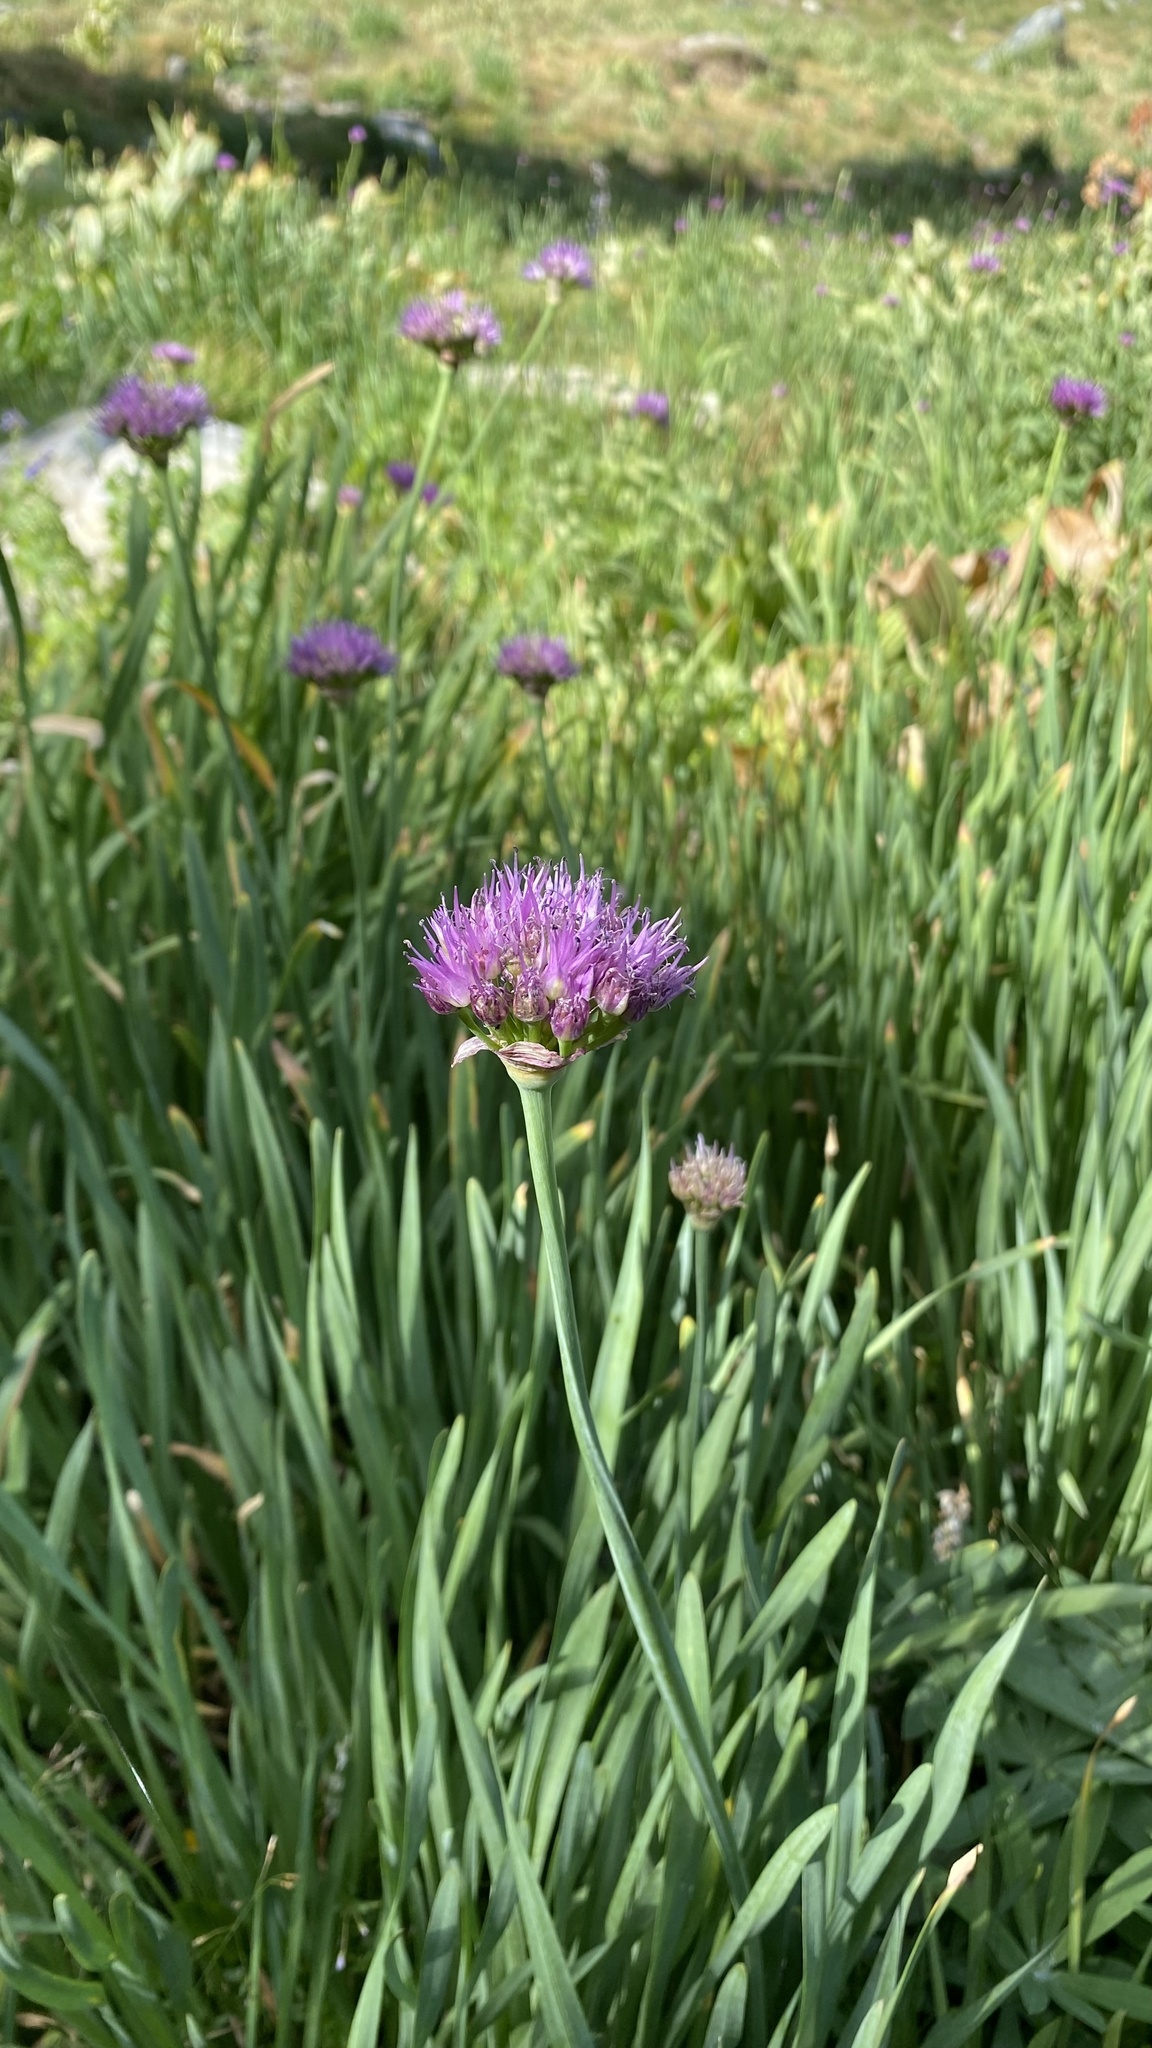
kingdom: Plantae
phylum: Tracheophyta
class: Liliopsida
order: Asparagales
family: Amaryllidaceae
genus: Allium
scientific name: Allium validum
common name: Pacific mountain onion
